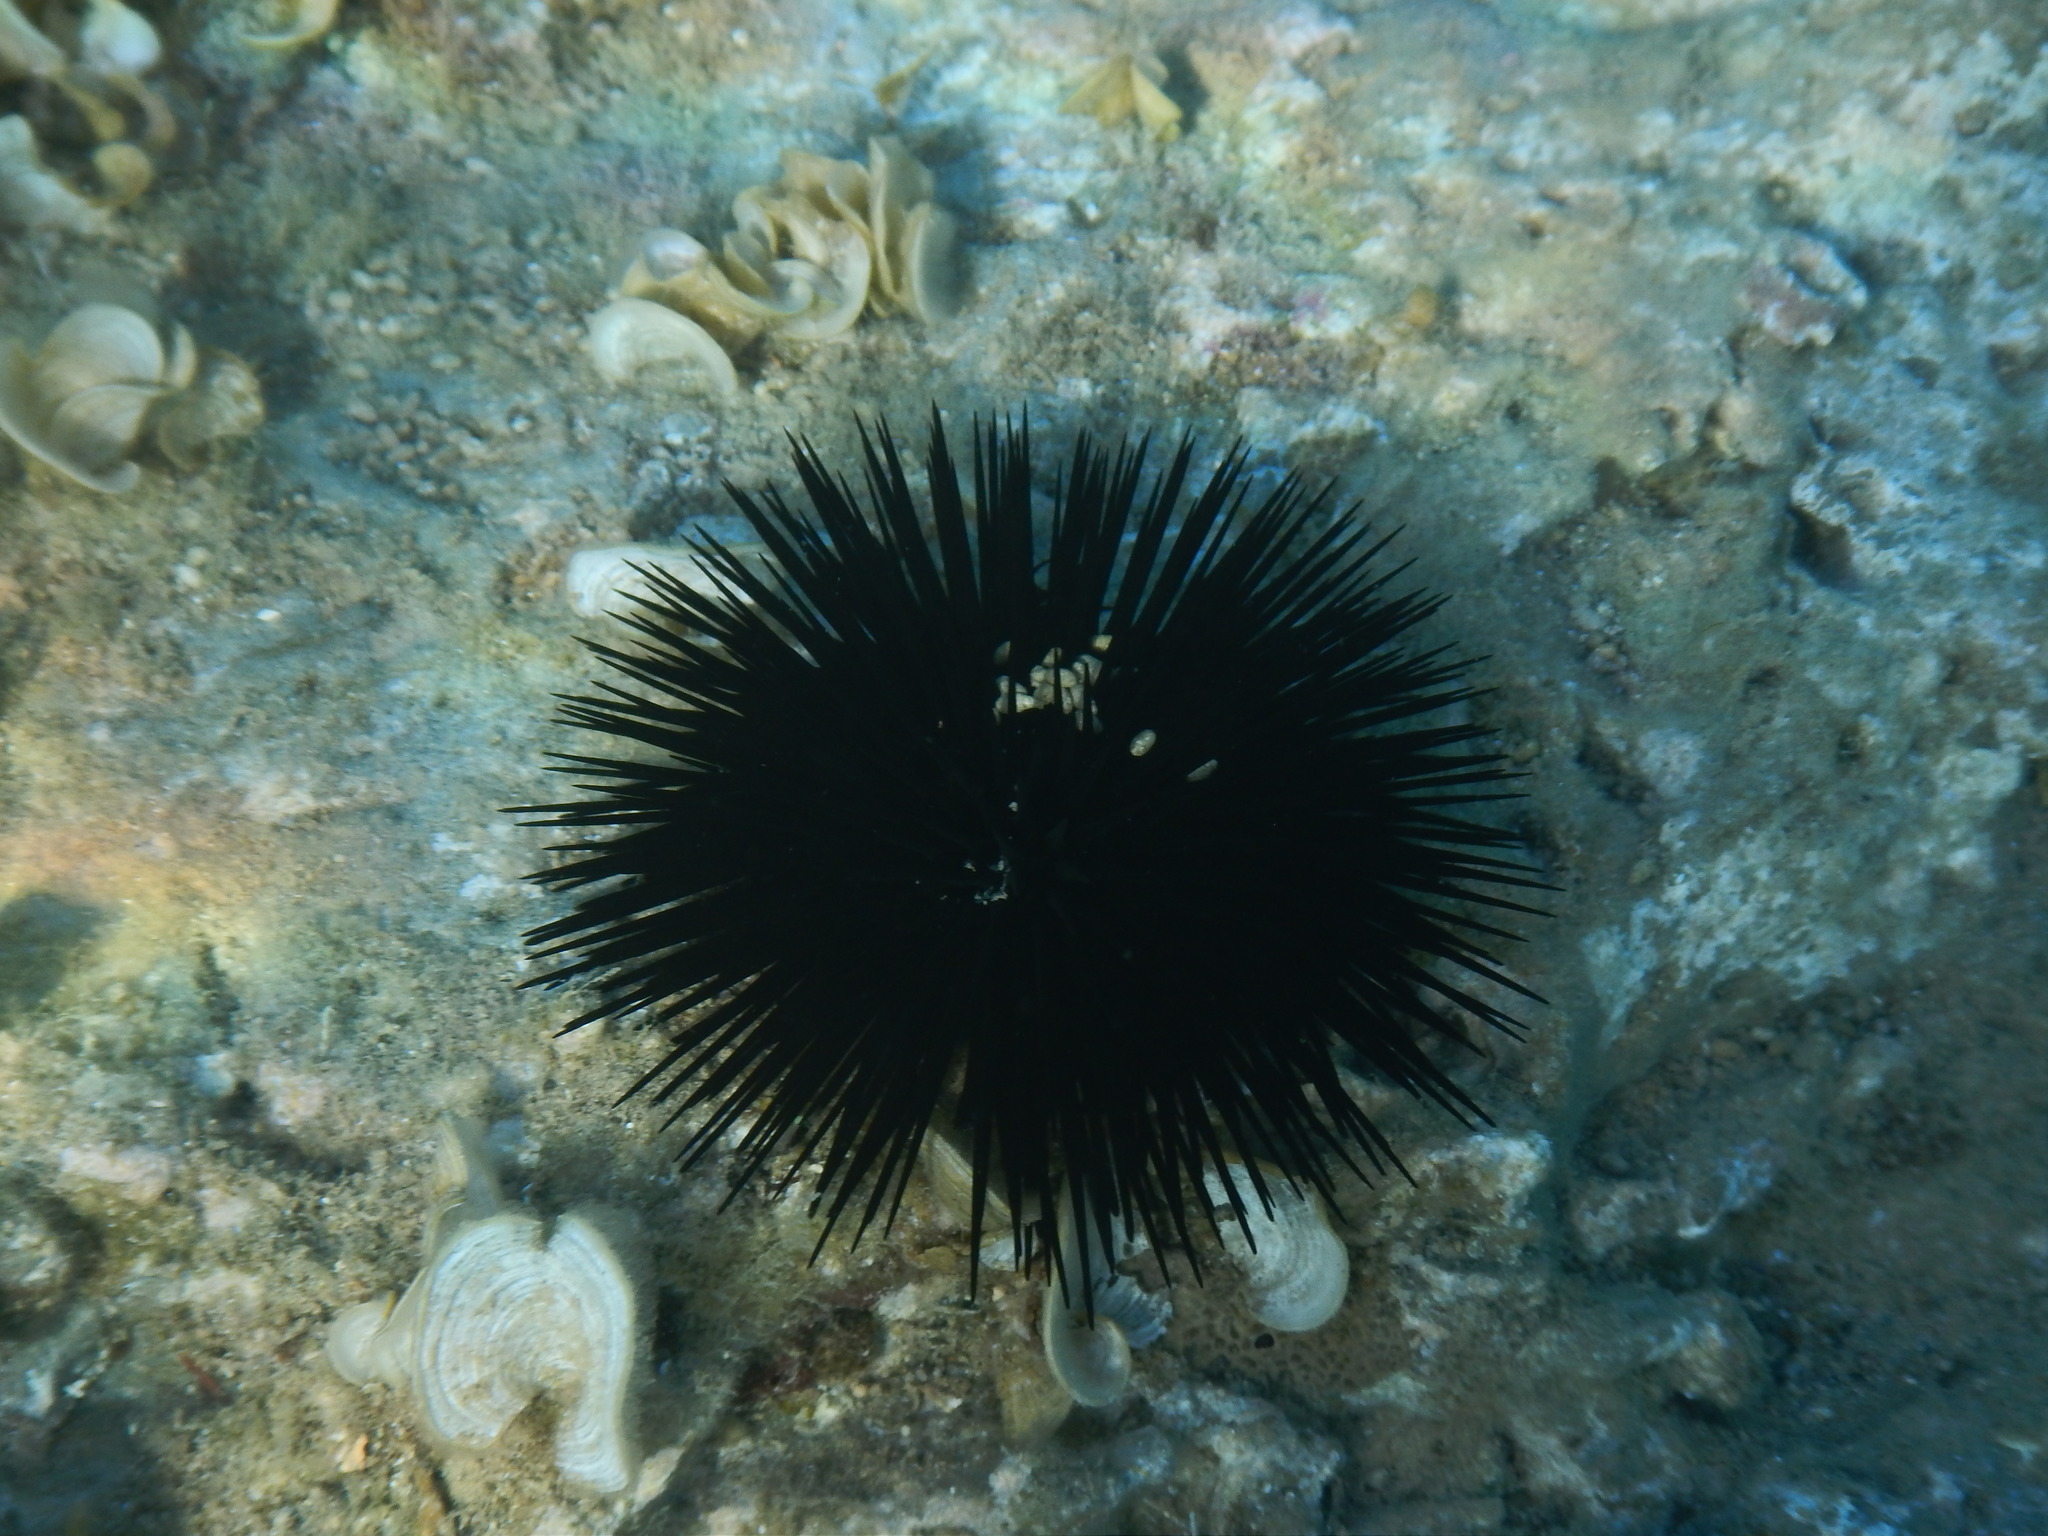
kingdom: Animalia
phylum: Echinodermata
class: Echinoidea
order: Arbacioida
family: Arbaciidae
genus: Arbacia
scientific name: Arbacia lixula
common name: Black sea urchin
